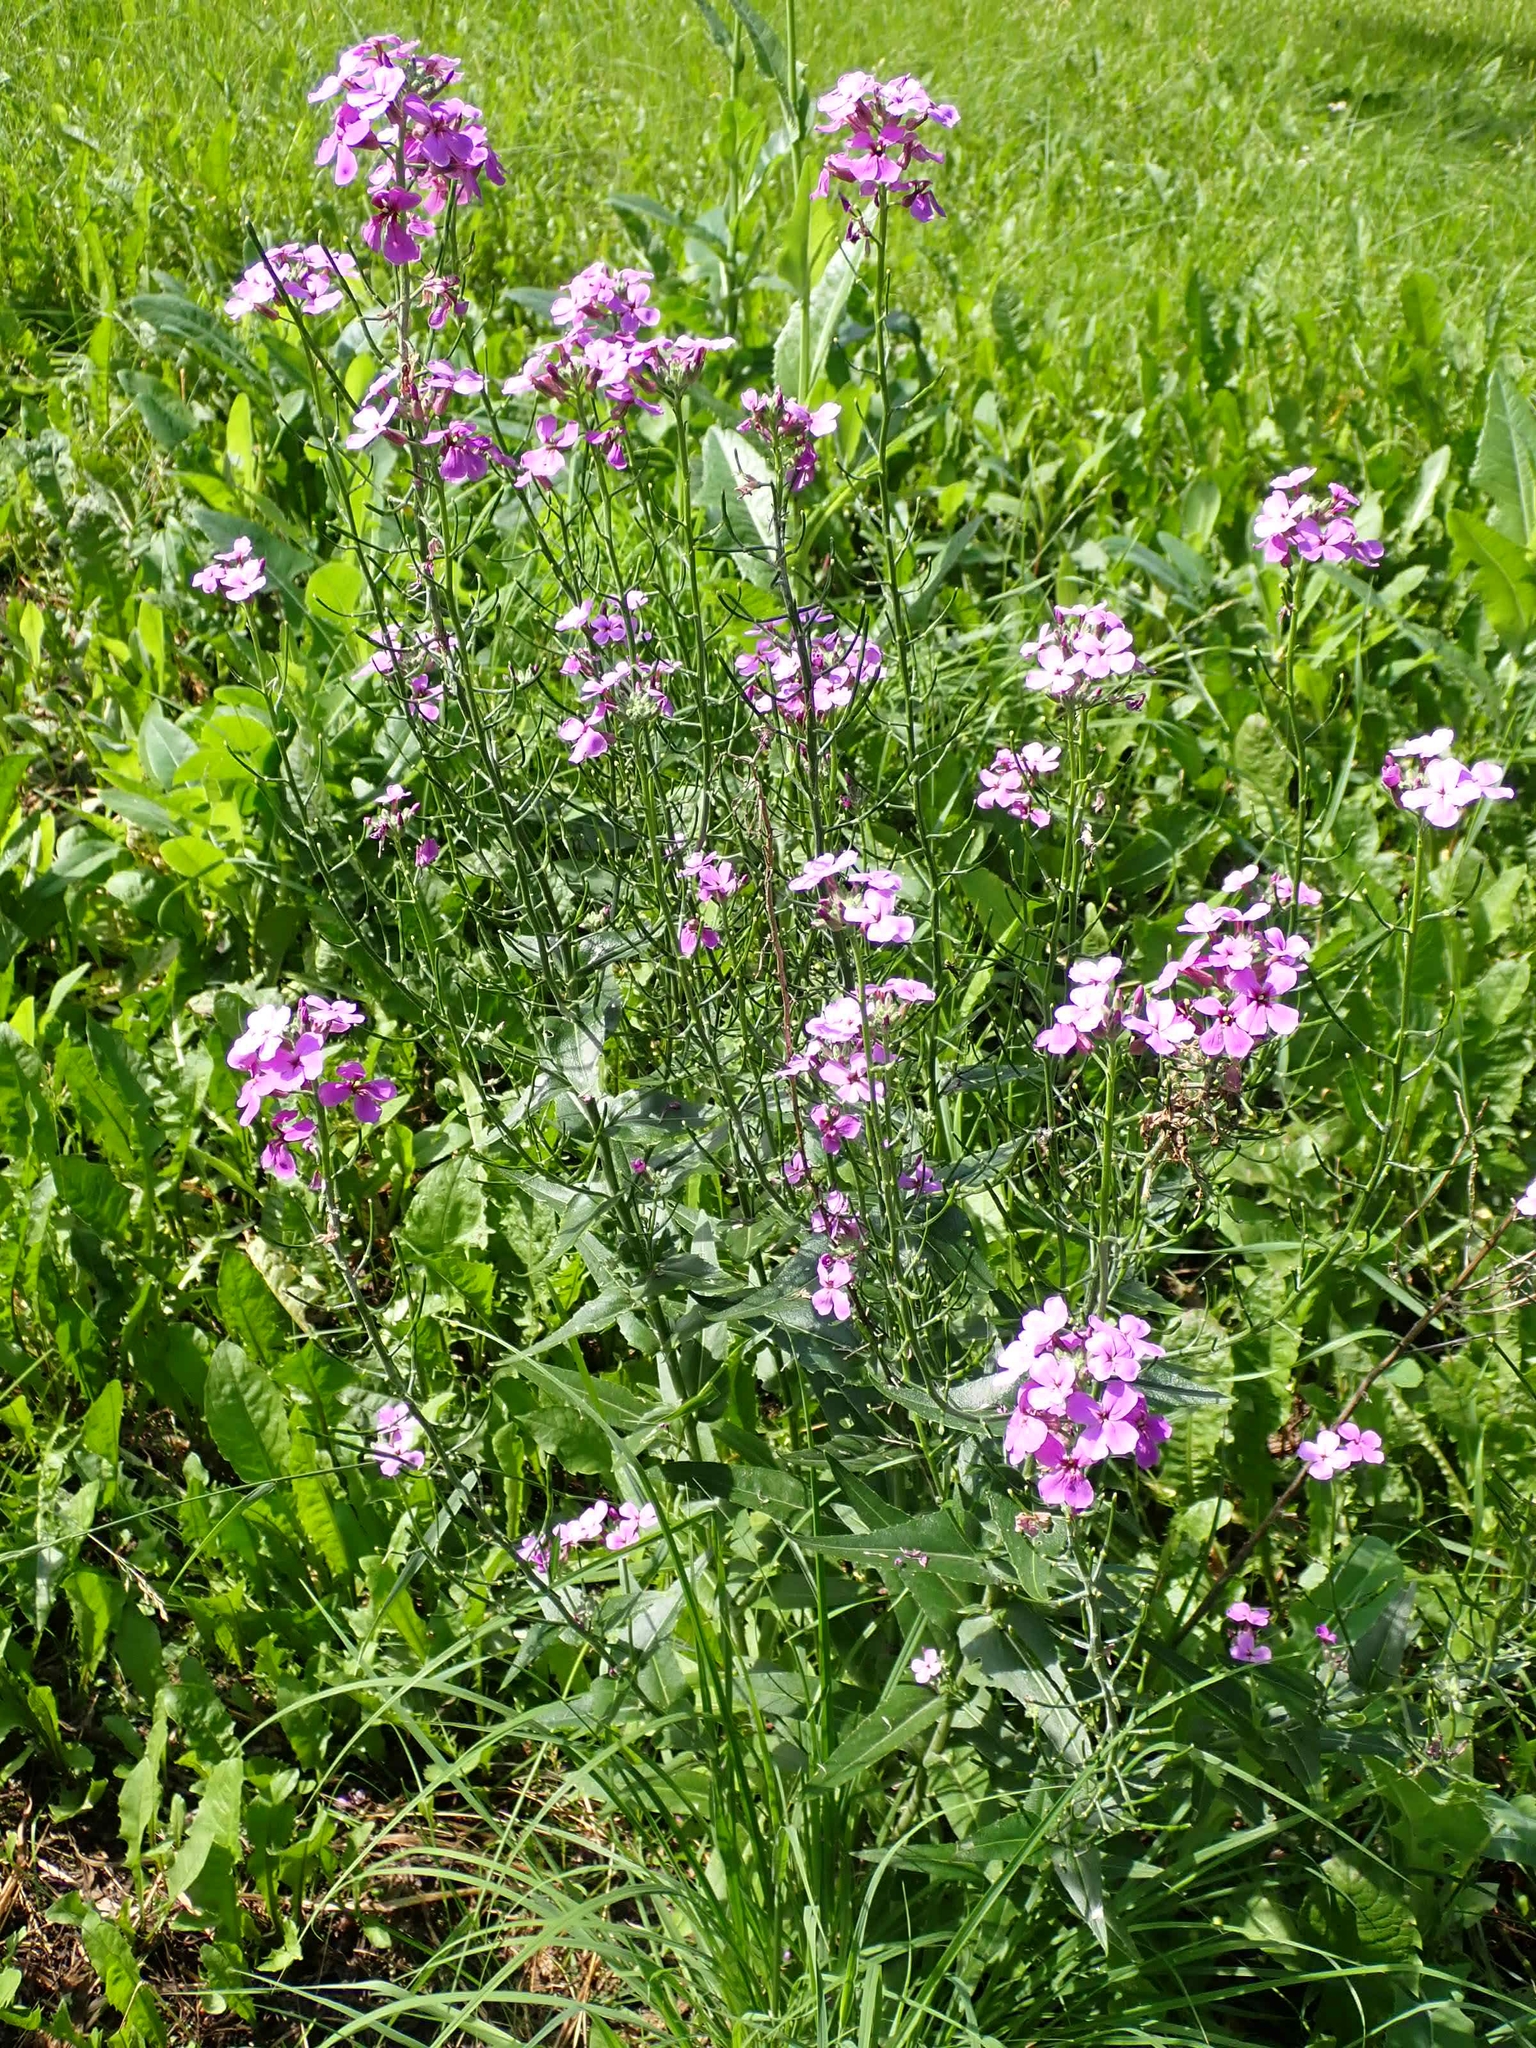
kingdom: Plantae
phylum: Tracheophyta
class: Magnoliopsida
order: Brassicales
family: Brassicaceae
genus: Hesperis
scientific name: Hesperis matronalis
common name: Dame's-violet
